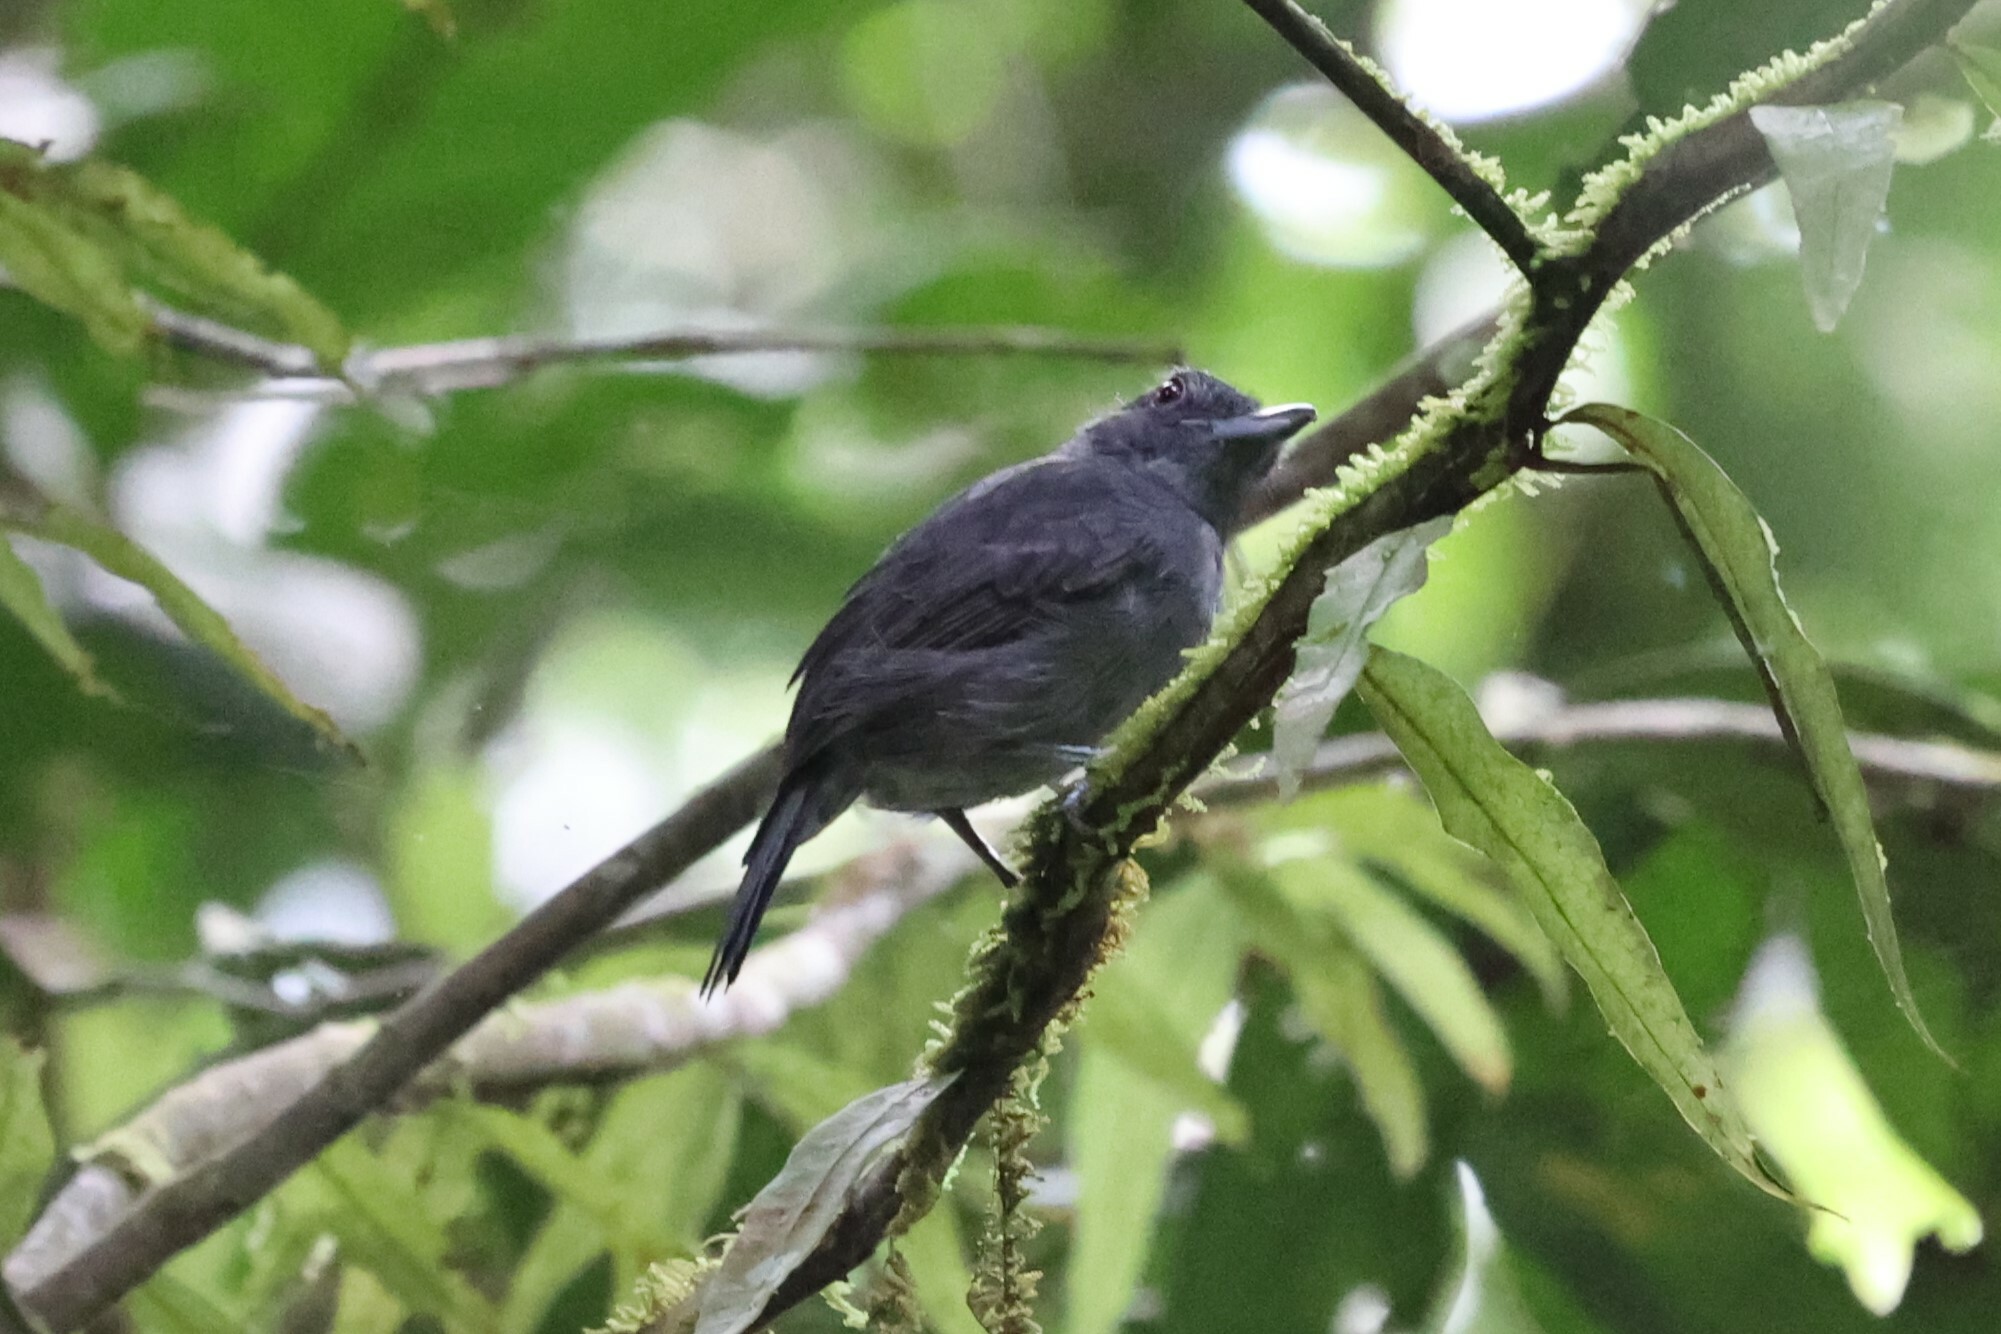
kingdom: Animalia
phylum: Chordata
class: Aves
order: Passeriformes
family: Thamnophilidae
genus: Thamnophilus
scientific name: Thamnophilus schistaceus
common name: Plain-winged antshrike
